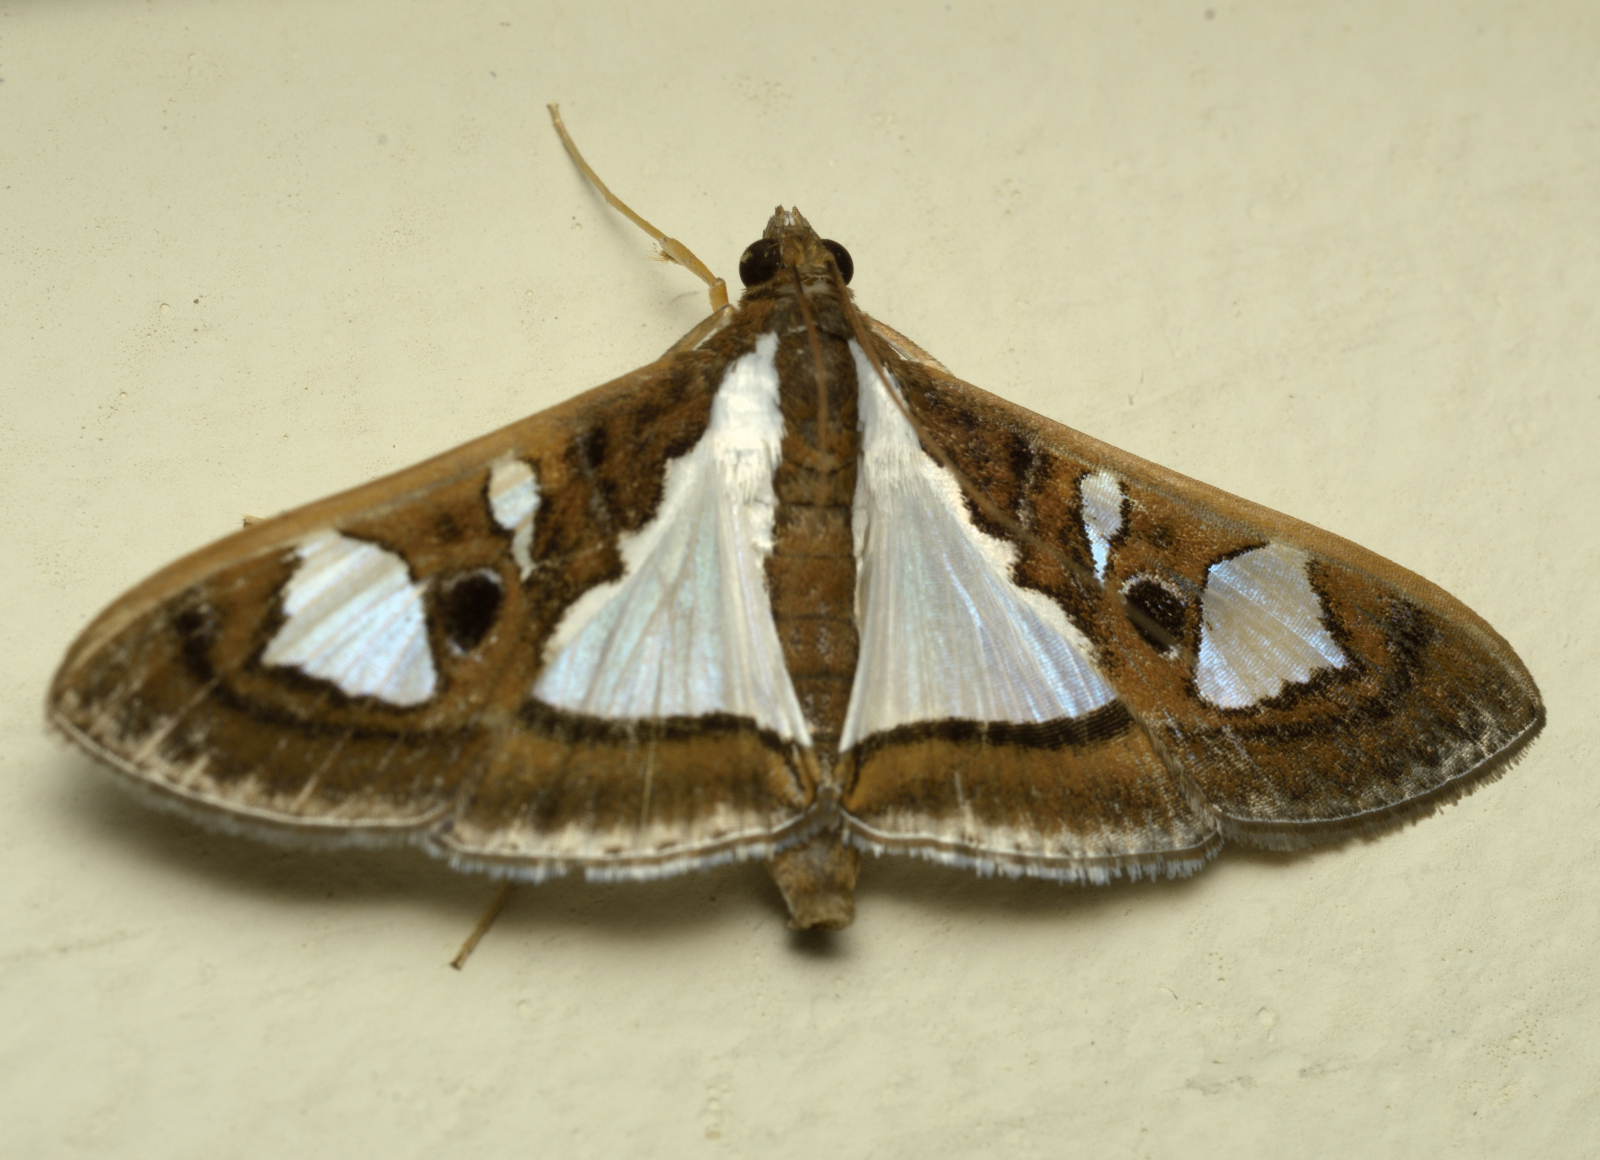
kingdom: Animalia
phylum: Arthropoda
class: Insecta
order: Lepidoptera
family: Crambidae
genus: Glyphodes
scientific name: Glyphodes bivitralis
